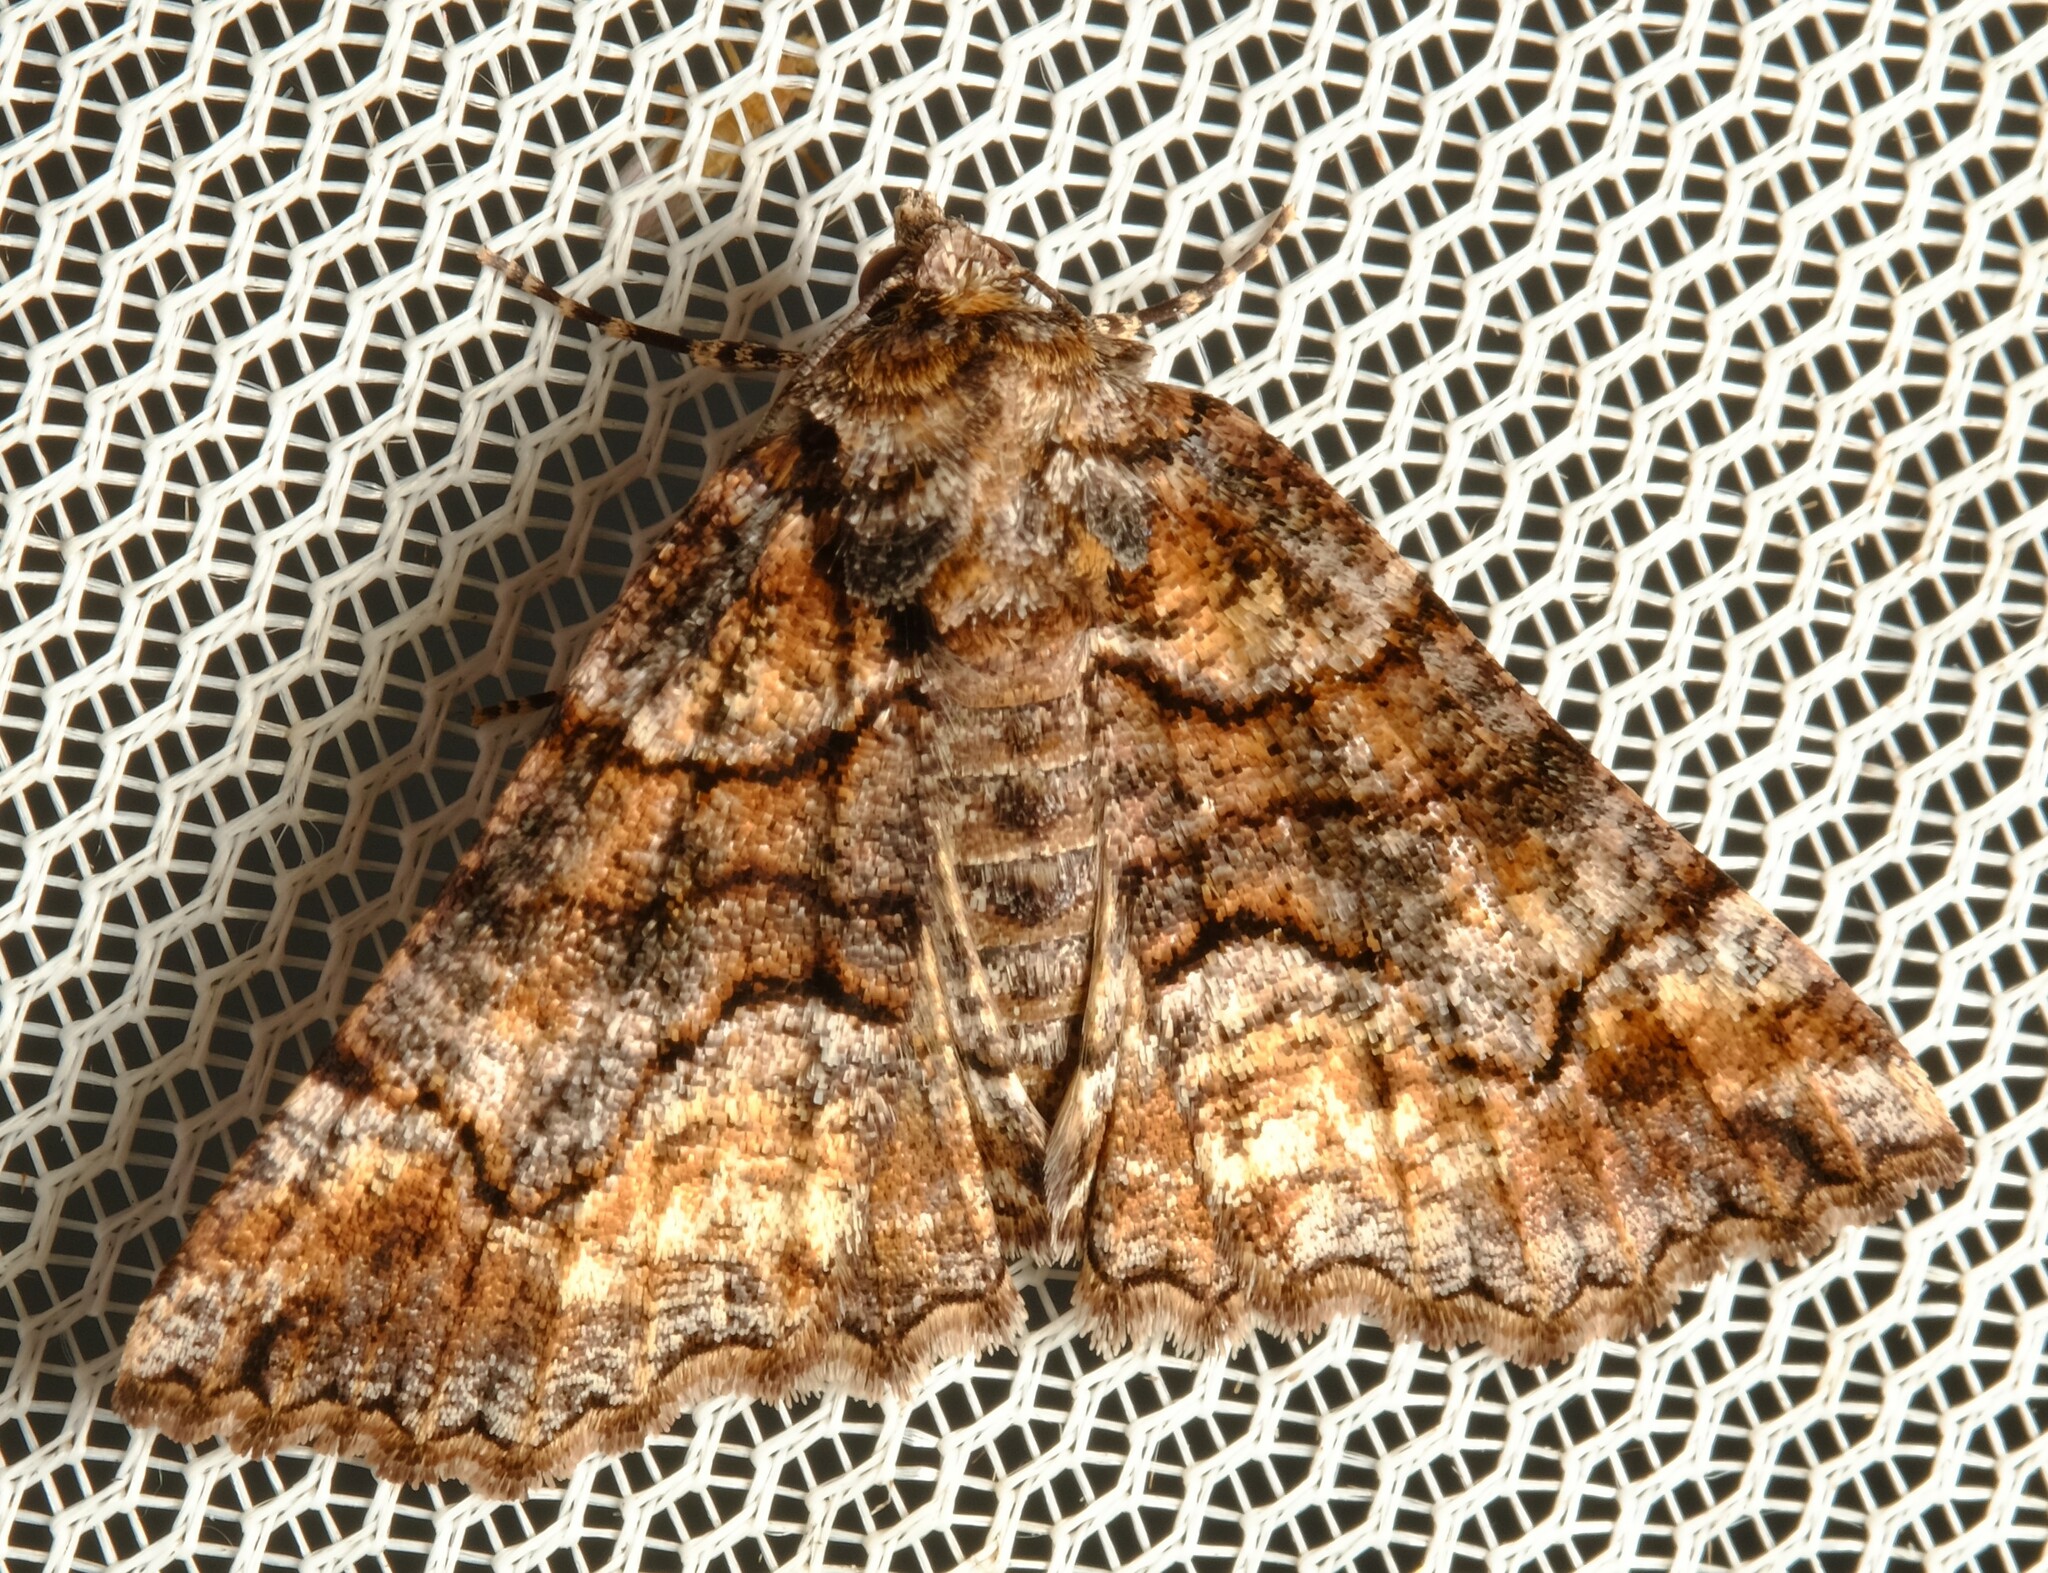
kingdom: Animalia
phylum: Arthropoda
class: Insecta
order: Lepidoptera
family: Geometridae
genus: Gastrina
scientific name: Gastrina cristaria
